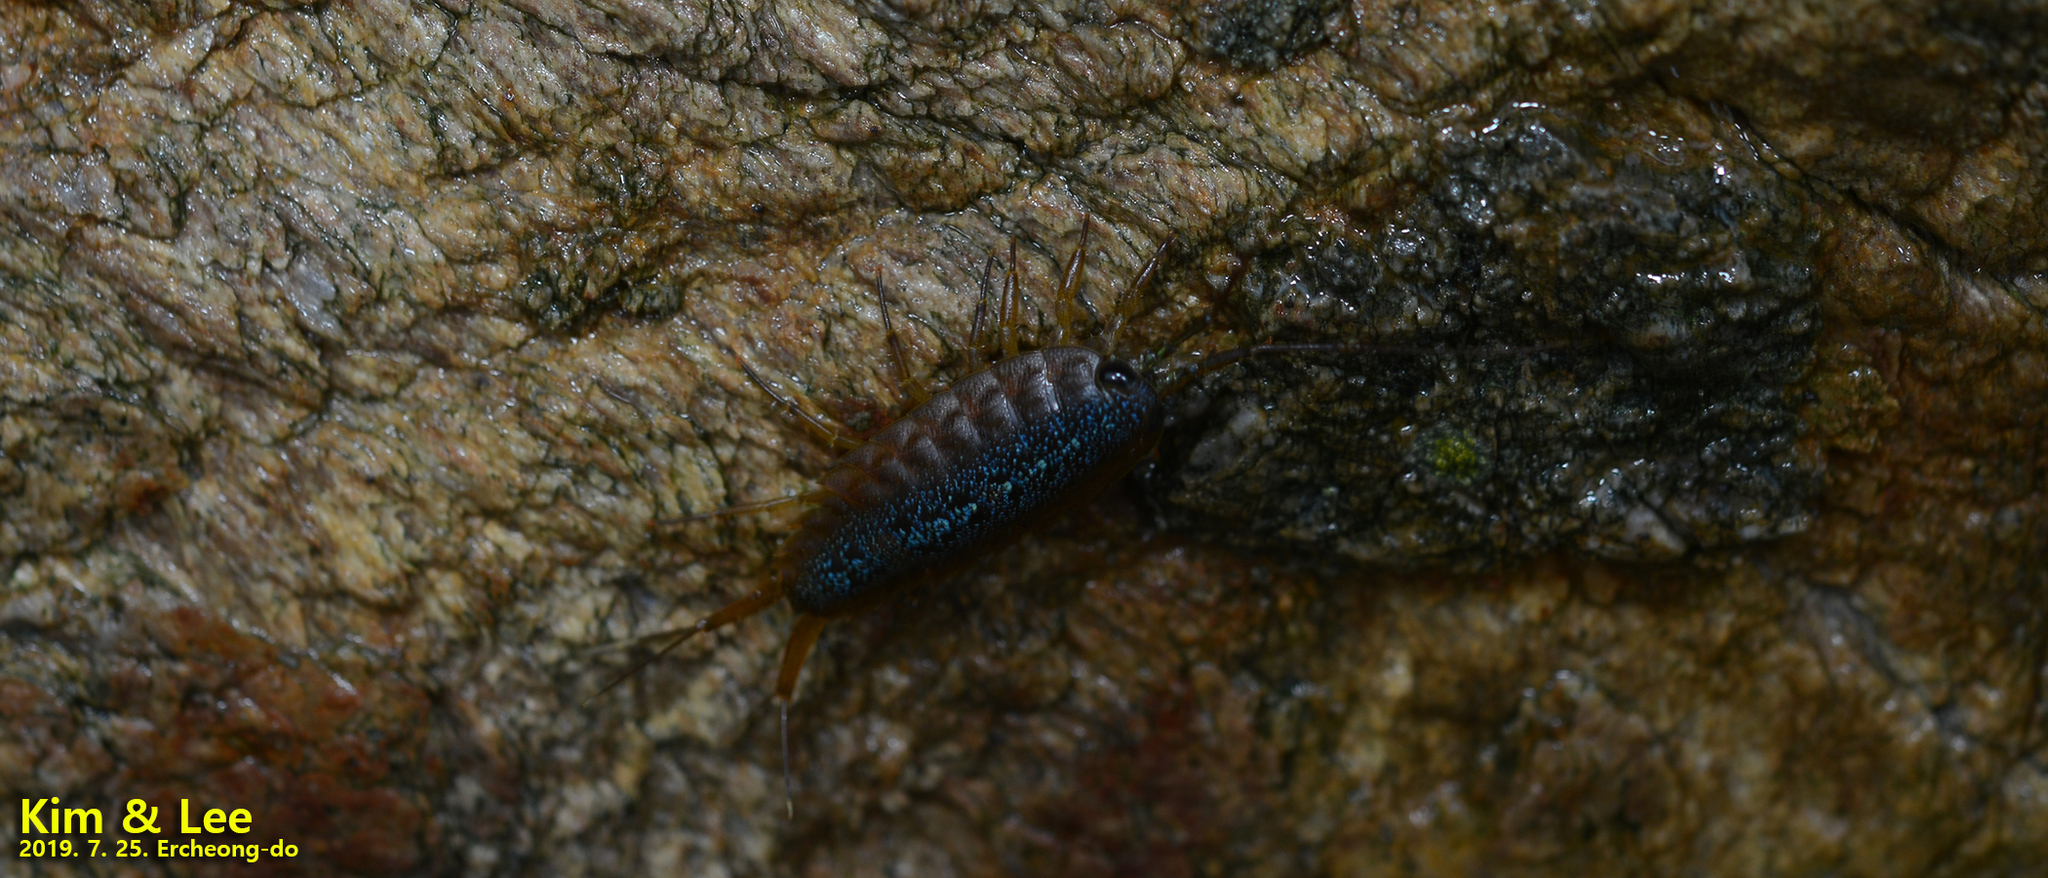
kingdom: Animalia
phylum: Arthropoda
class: Malacostraca
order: Isopoda
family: Ligiidae
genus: Ligia
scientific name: Ligia exotica
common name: Wharf roach
